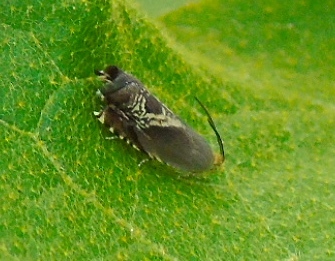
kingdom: Animalia
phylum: Arthropoda
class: Insecta
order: Lepidoptera
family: Tortricidae
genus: Grapholita
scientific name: Grapholita interstinctana
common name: Clover head caterpillar moth
